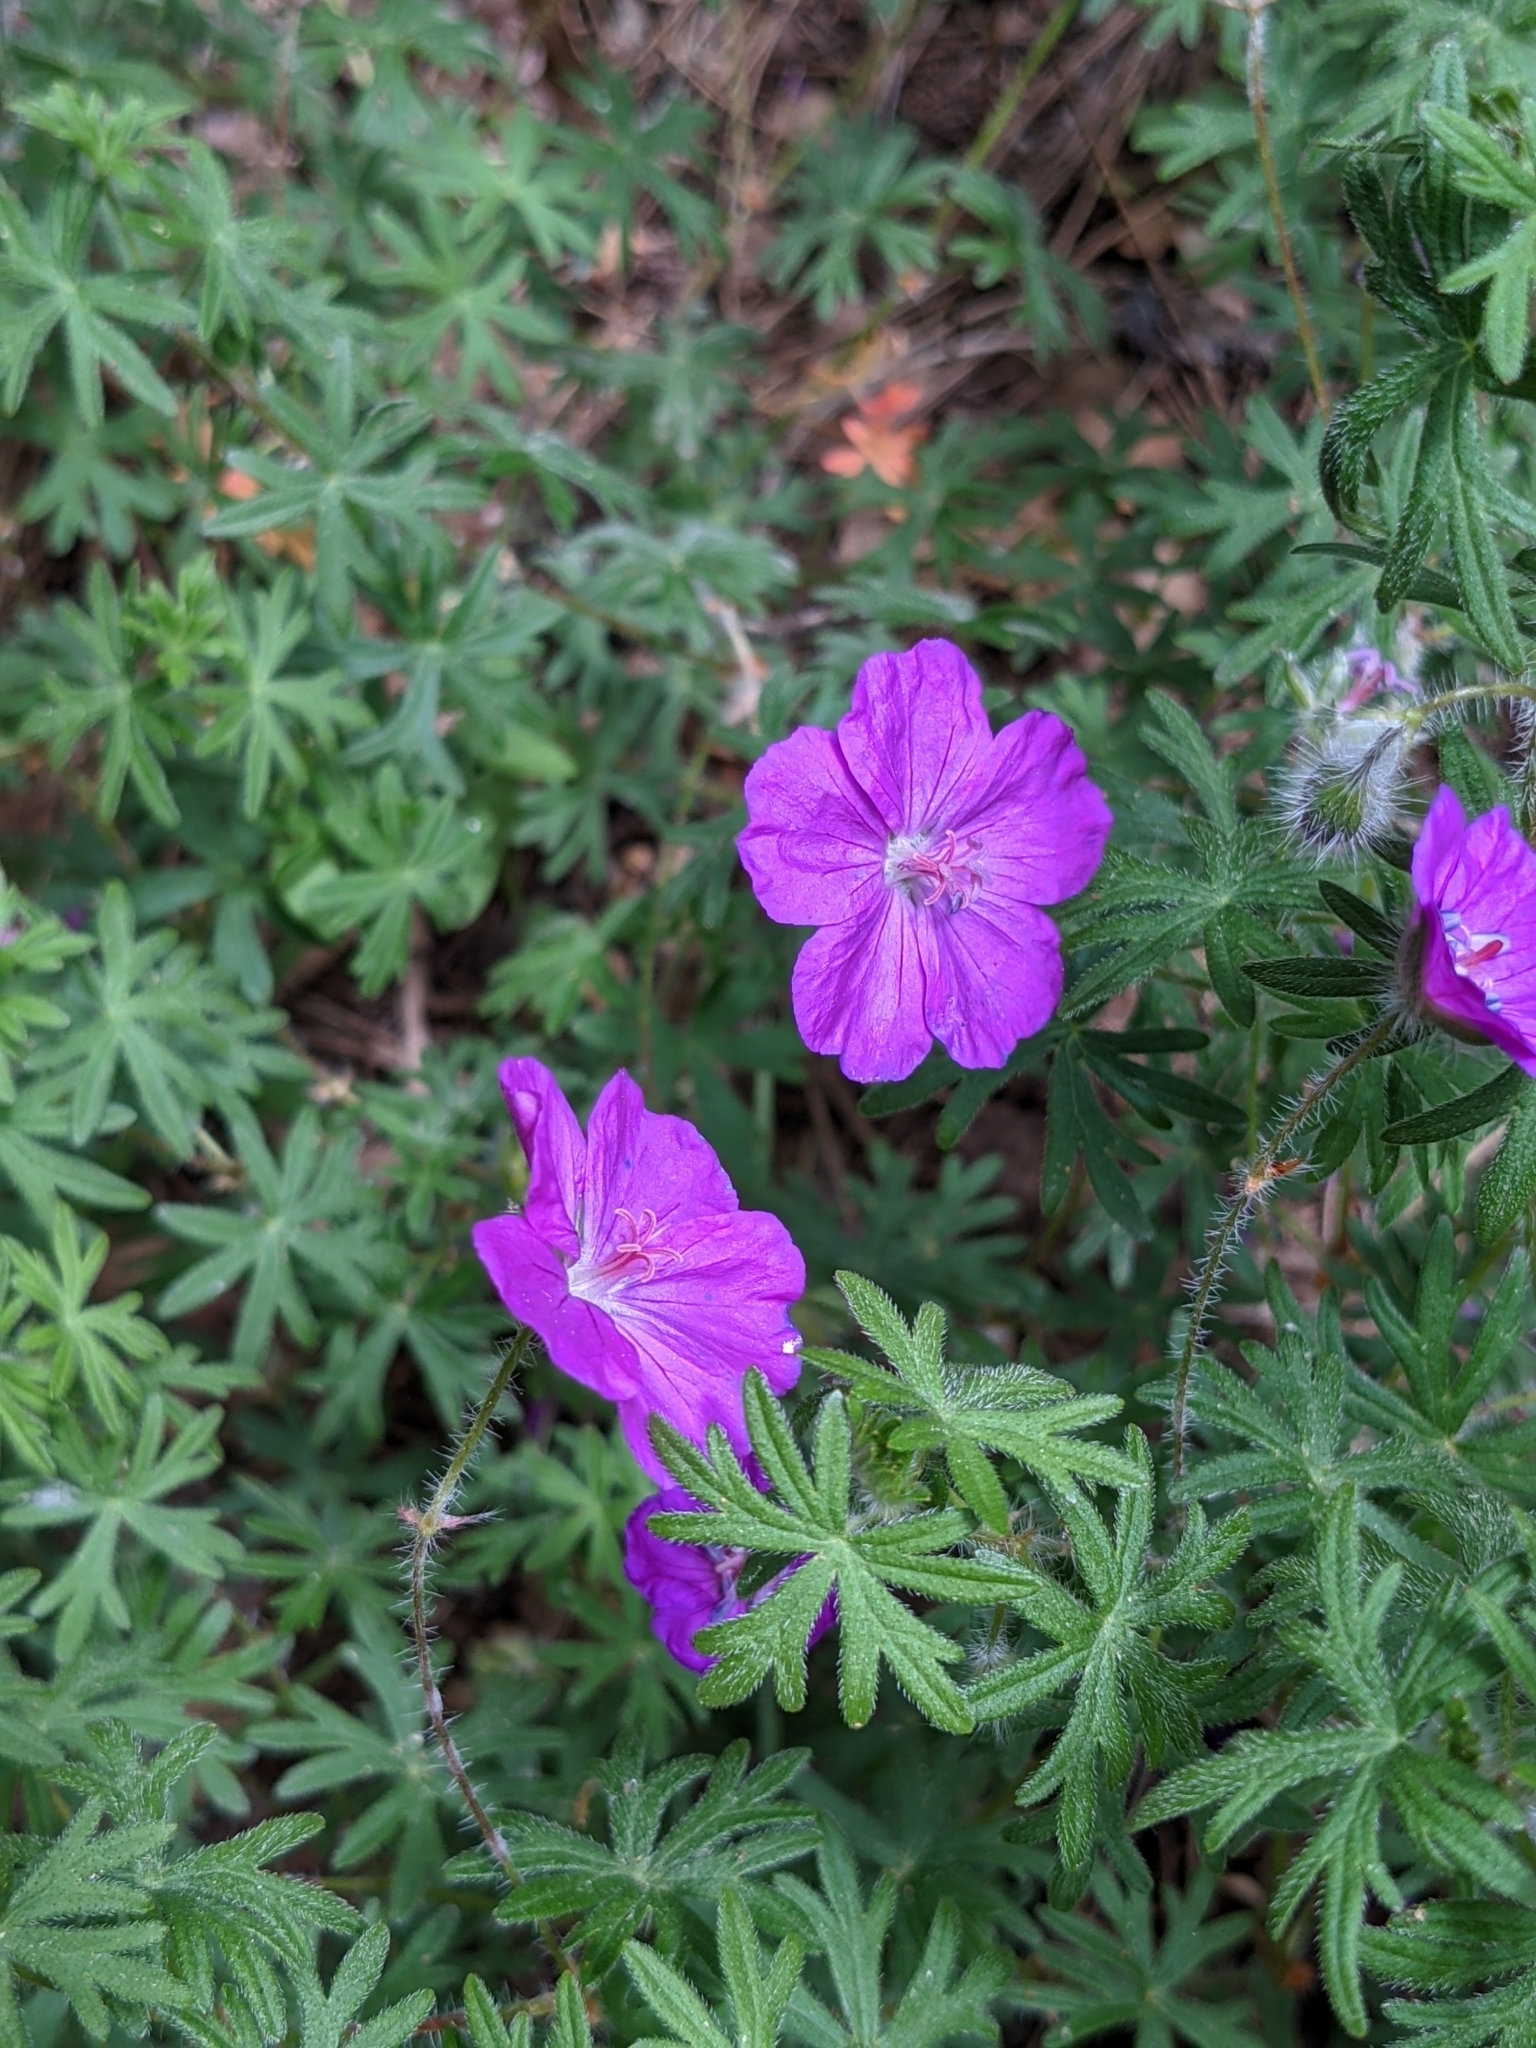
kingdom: Plantae
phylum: Tracheophyta
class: Magnoliopsida
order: Geraniales
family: Geraniaceae
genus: Geranium
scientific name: Geranium sanguineum
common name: Bloody crane's-bill
